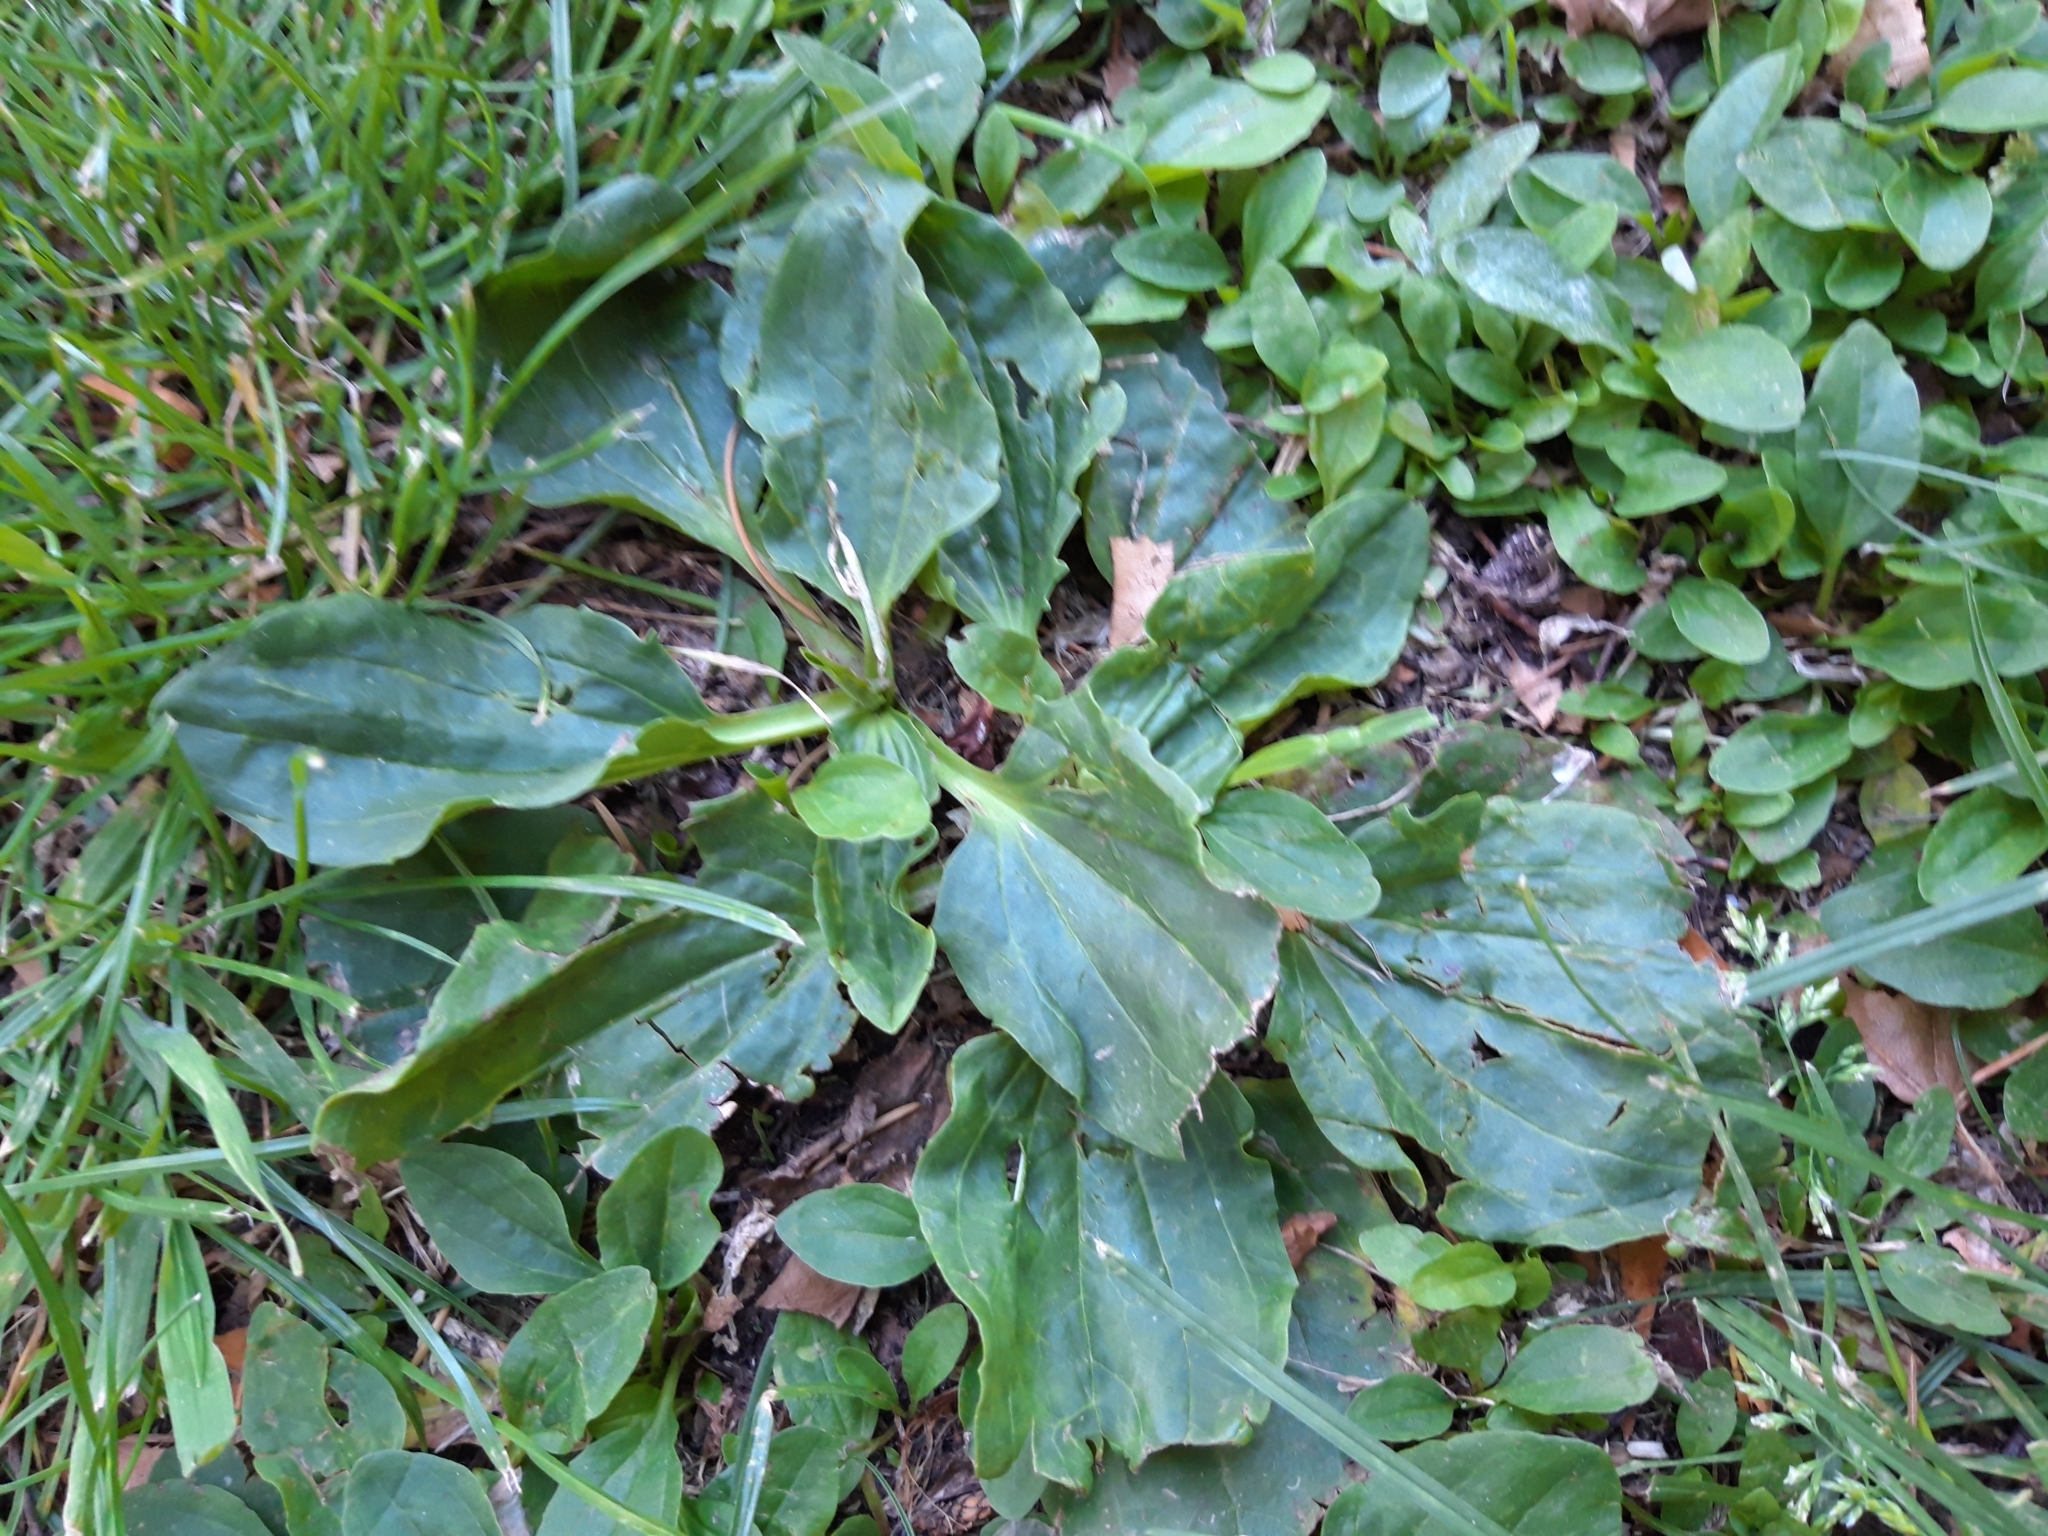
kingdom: Plantae
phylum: Tracheophyta
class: Magnoliopsida
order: Lamiales
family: Plantaginaceae
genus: Plantago
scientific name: Plantago major
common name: Common plantain
